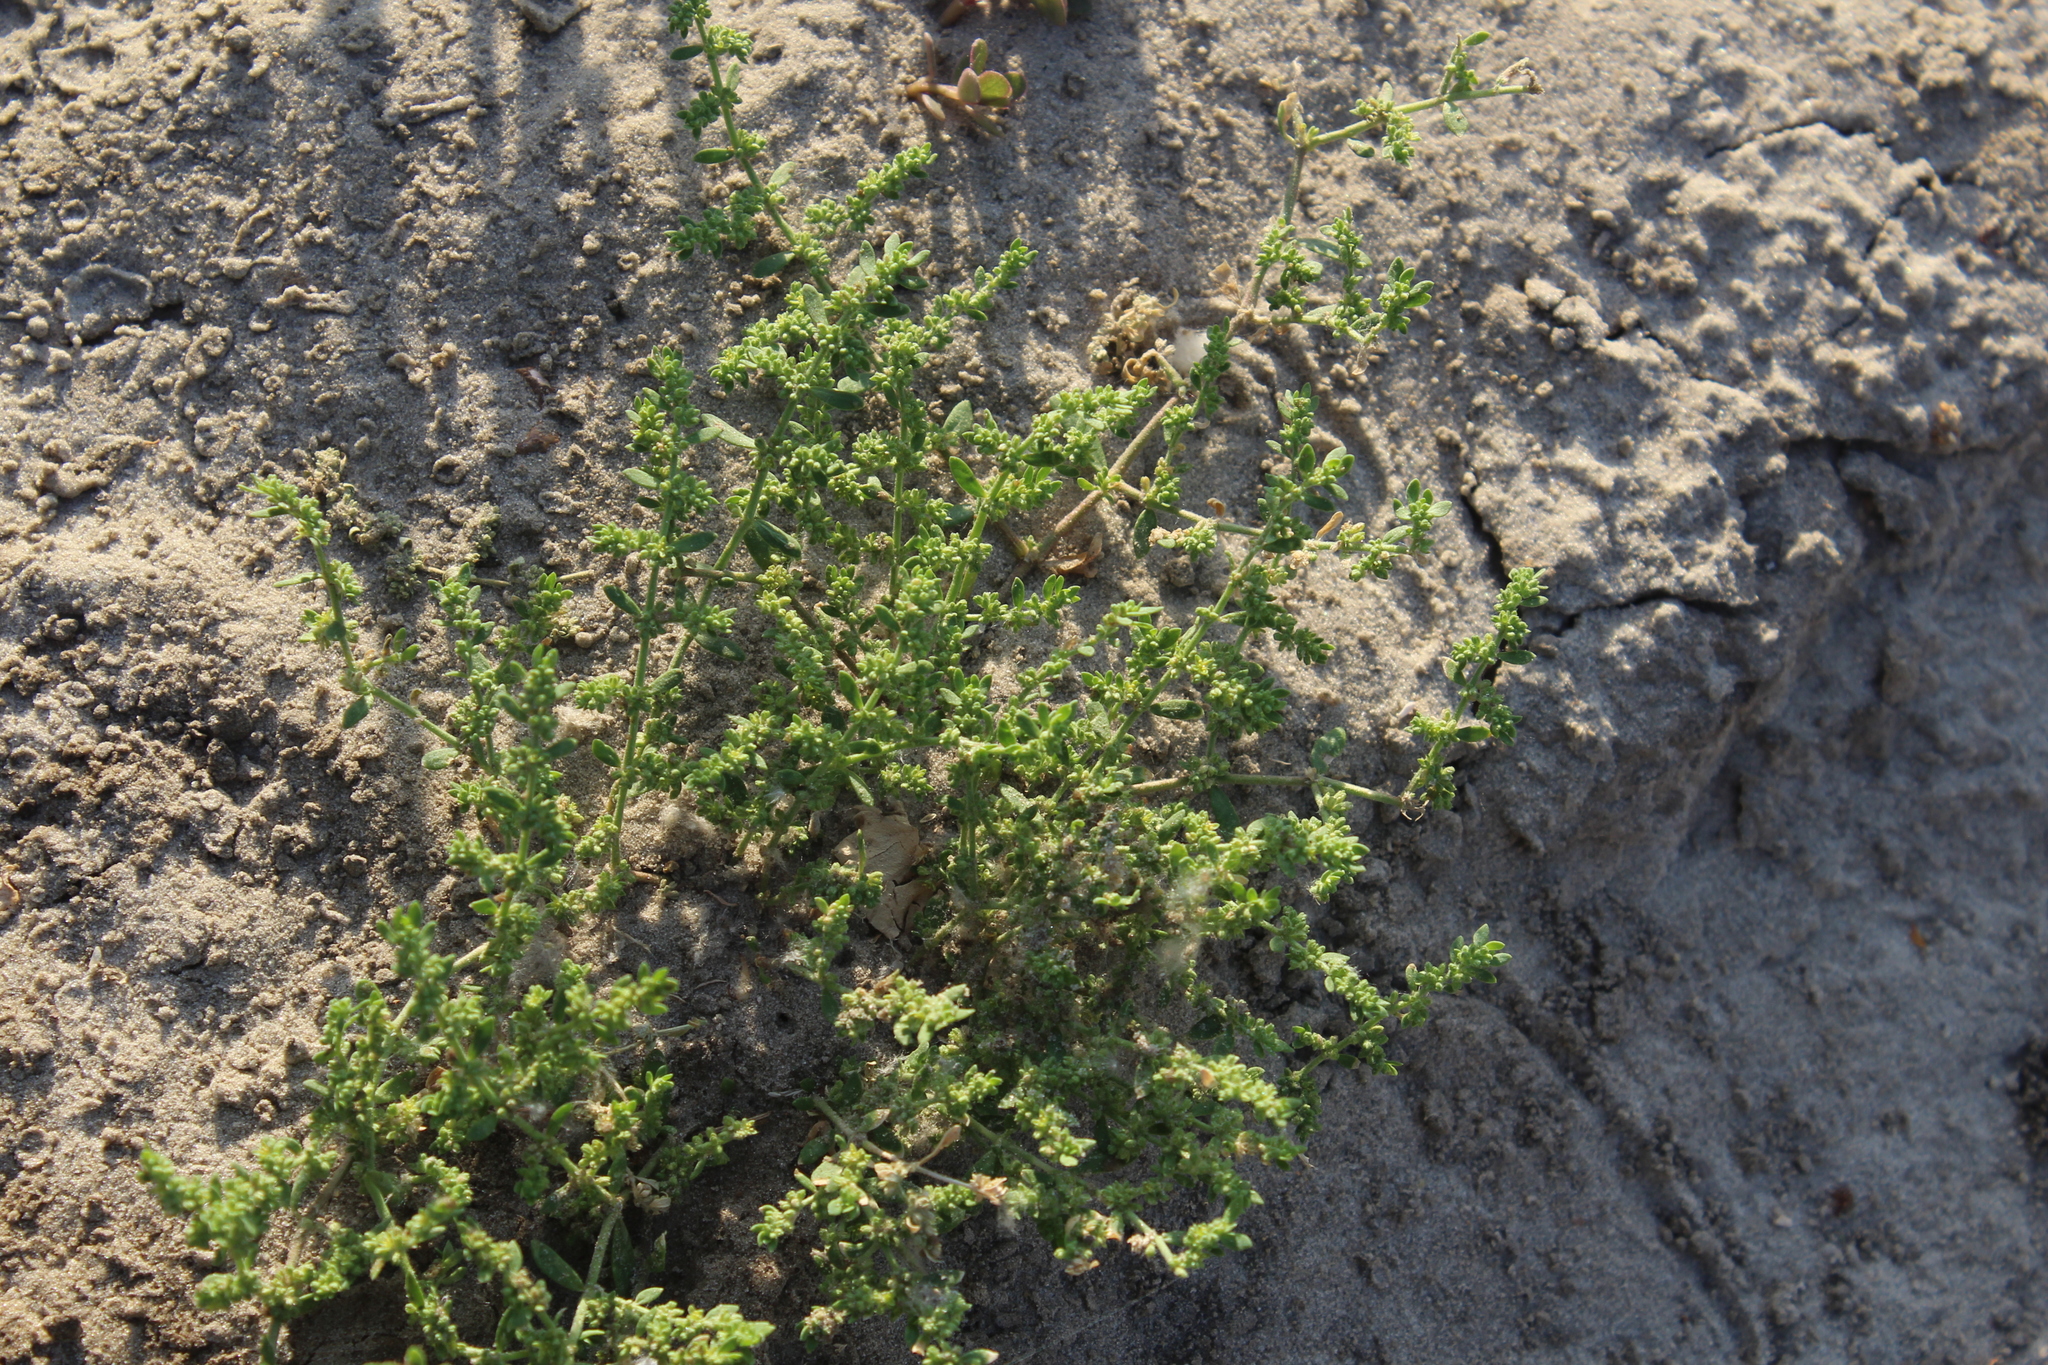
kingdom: Plantae
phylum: Tracheophyta
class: Magnoliopsida
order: Caryophyllales
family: Caryophyllaceae
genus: Herniaria
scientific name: Herniaria polygama
